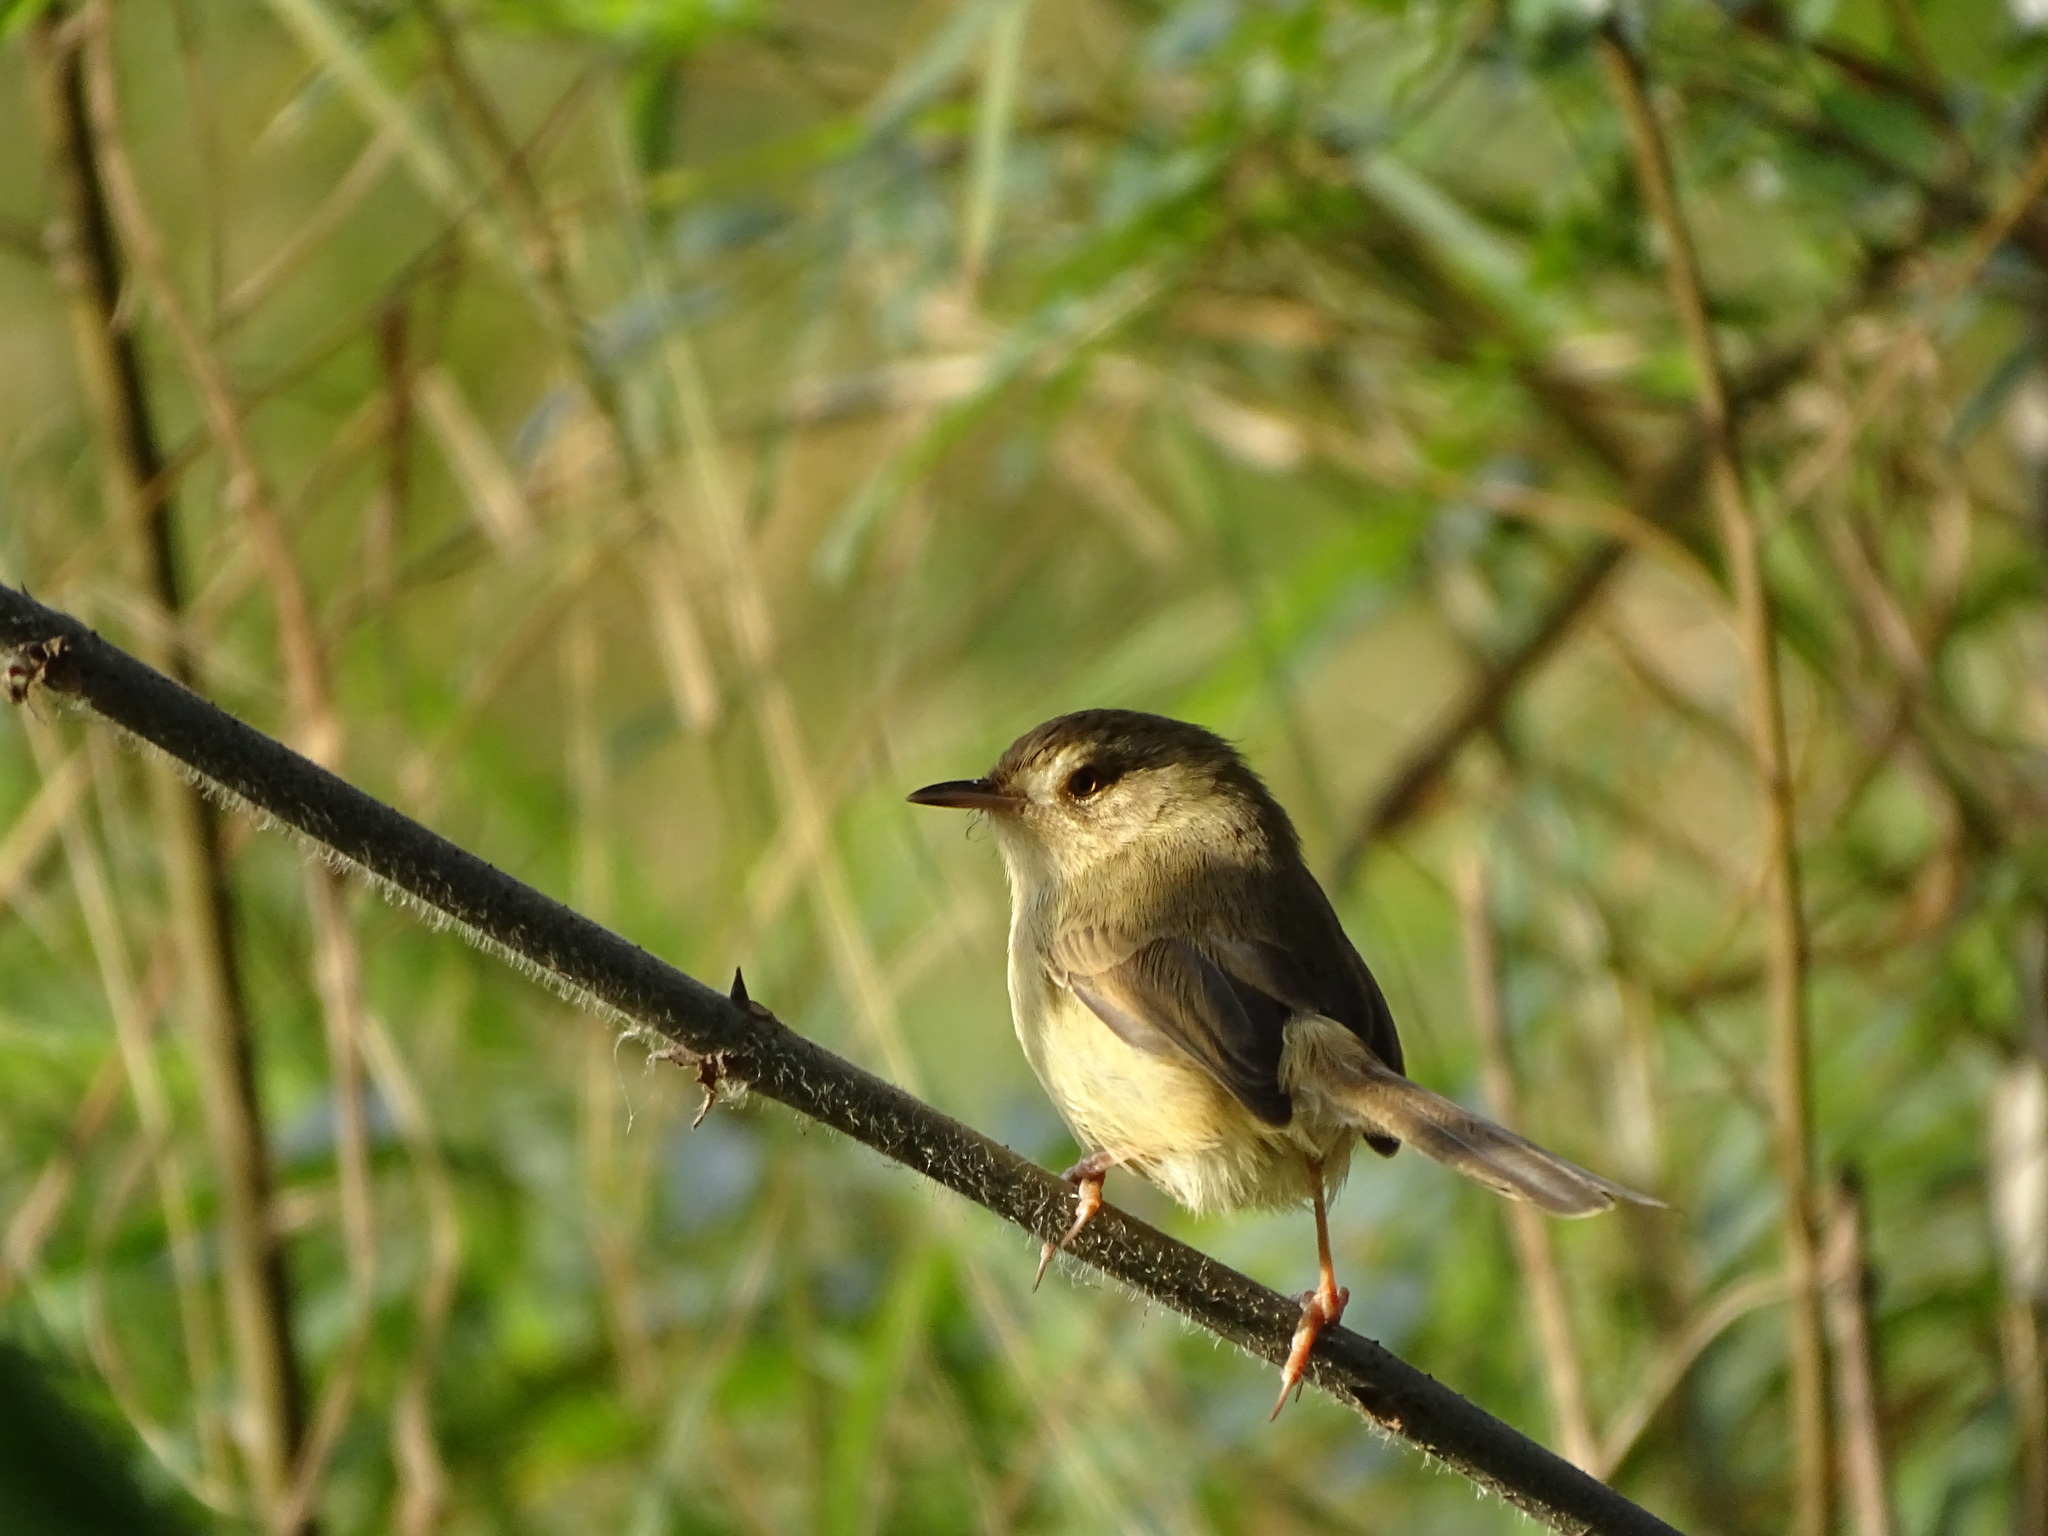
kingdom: Animalia
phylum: Chordata
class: Aves
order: Passeriformes
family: Cisticolidae
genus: Prinia
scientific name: Prinia inornata
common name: Plain prinia
